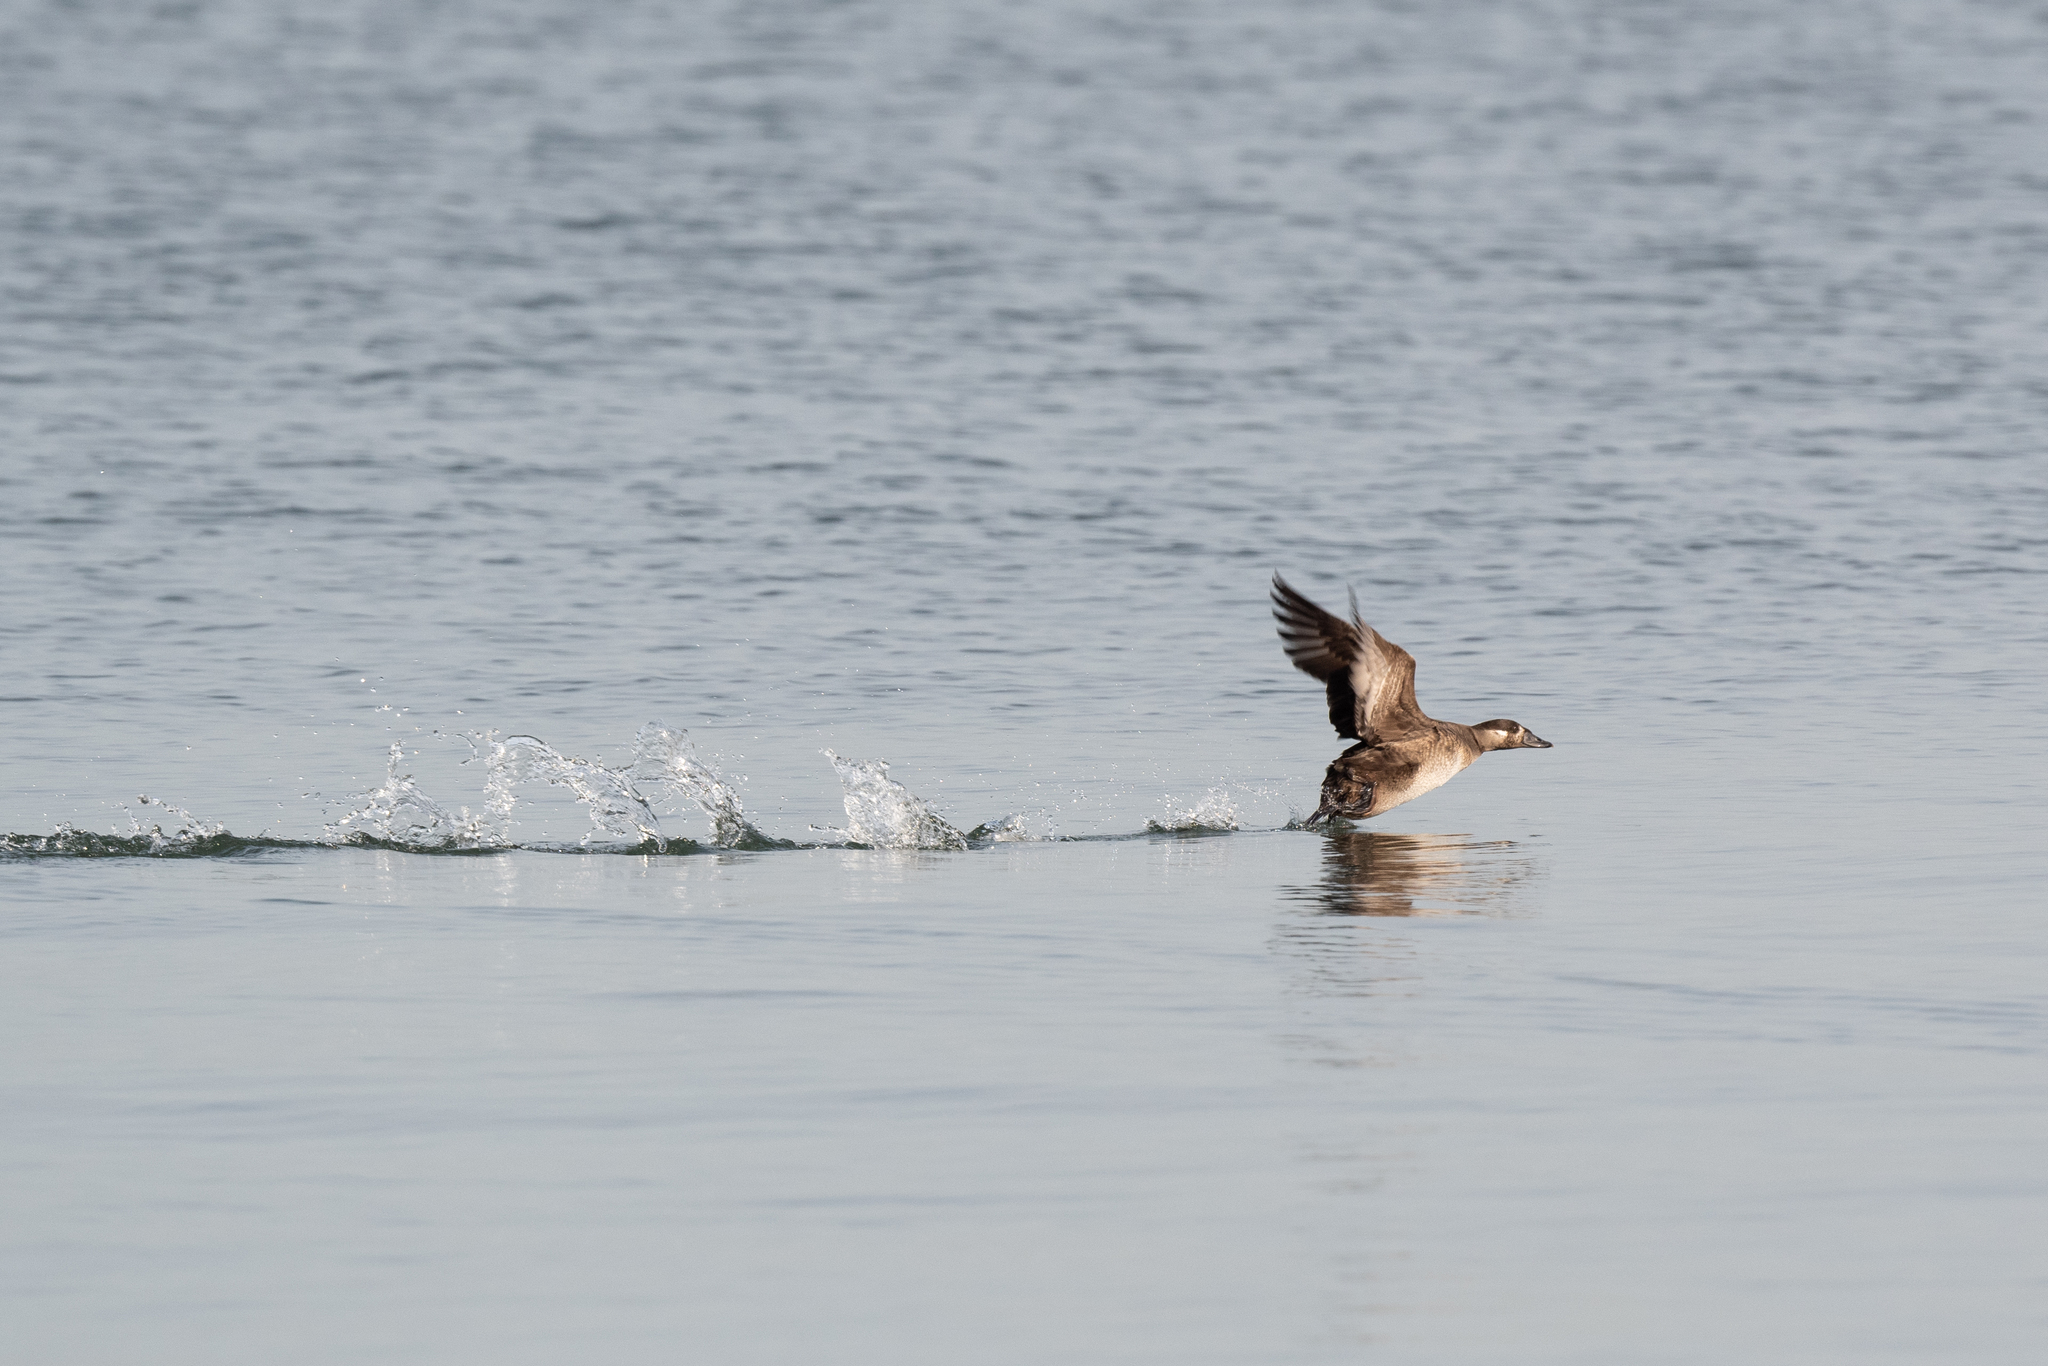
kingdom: Animalia
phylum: Chordata
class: Aves
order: Anseriformes
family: Anatidae
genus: Melanitta
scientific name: Melanitta perspicillata
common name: Surf scoter
